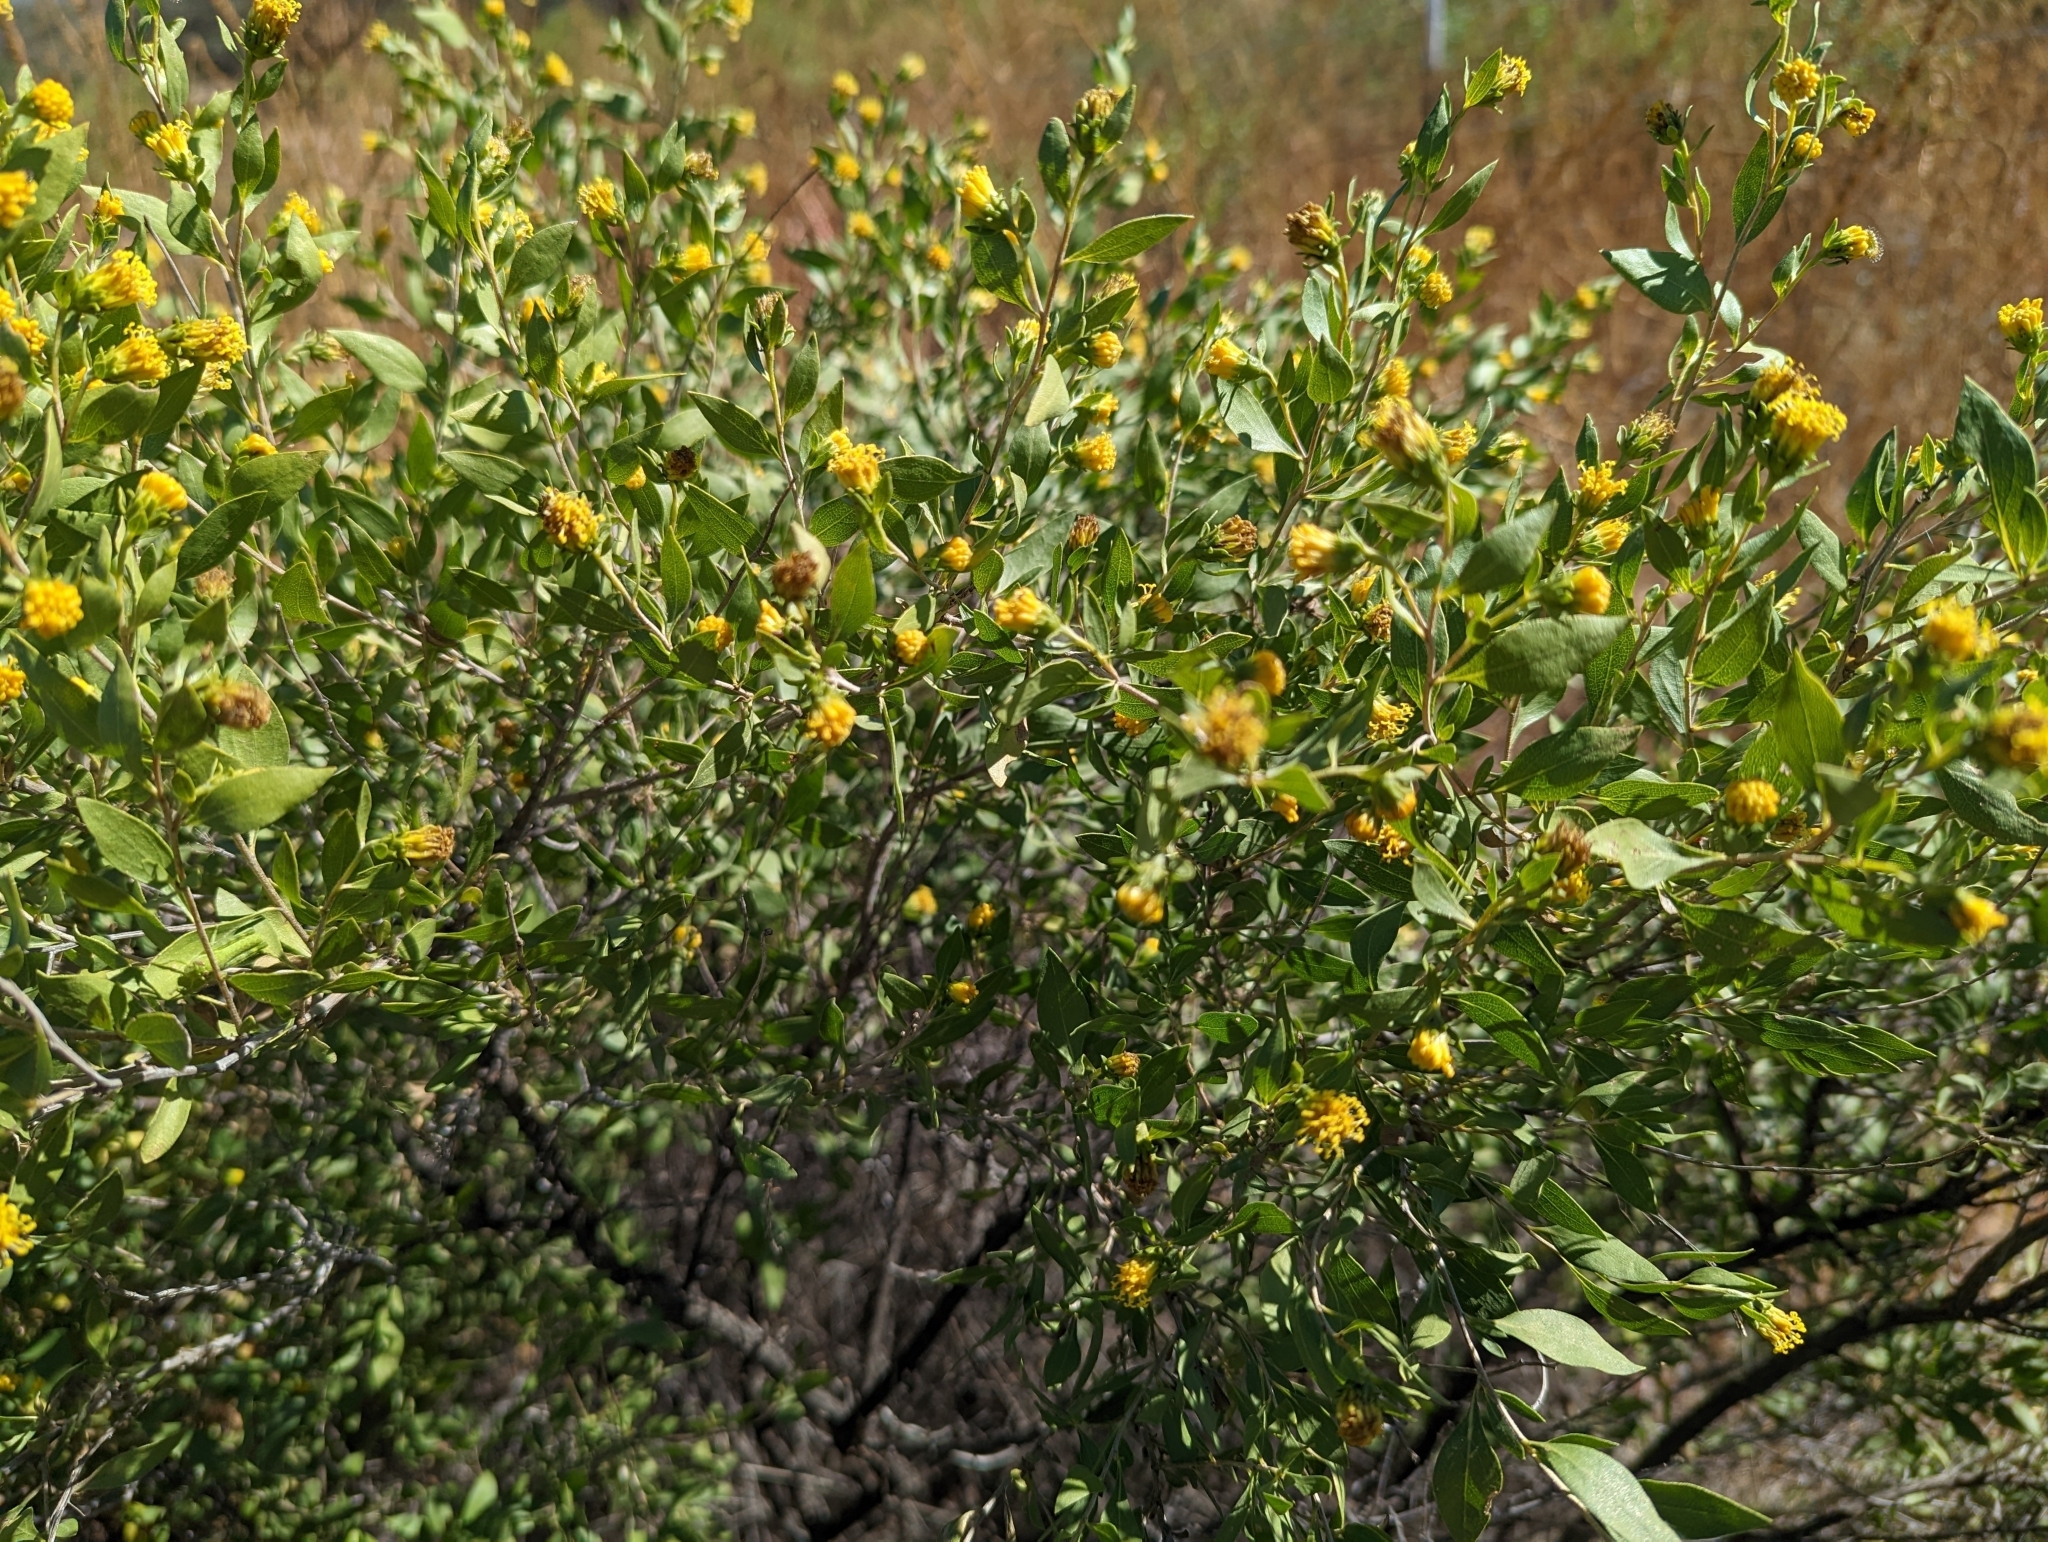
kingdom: Plantae
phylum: Tracheophyta
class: Magnoliopsida
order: Asterales
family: Asteraceae
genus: Flourensia
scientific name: Flourensia cernua
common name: Varnishbush
